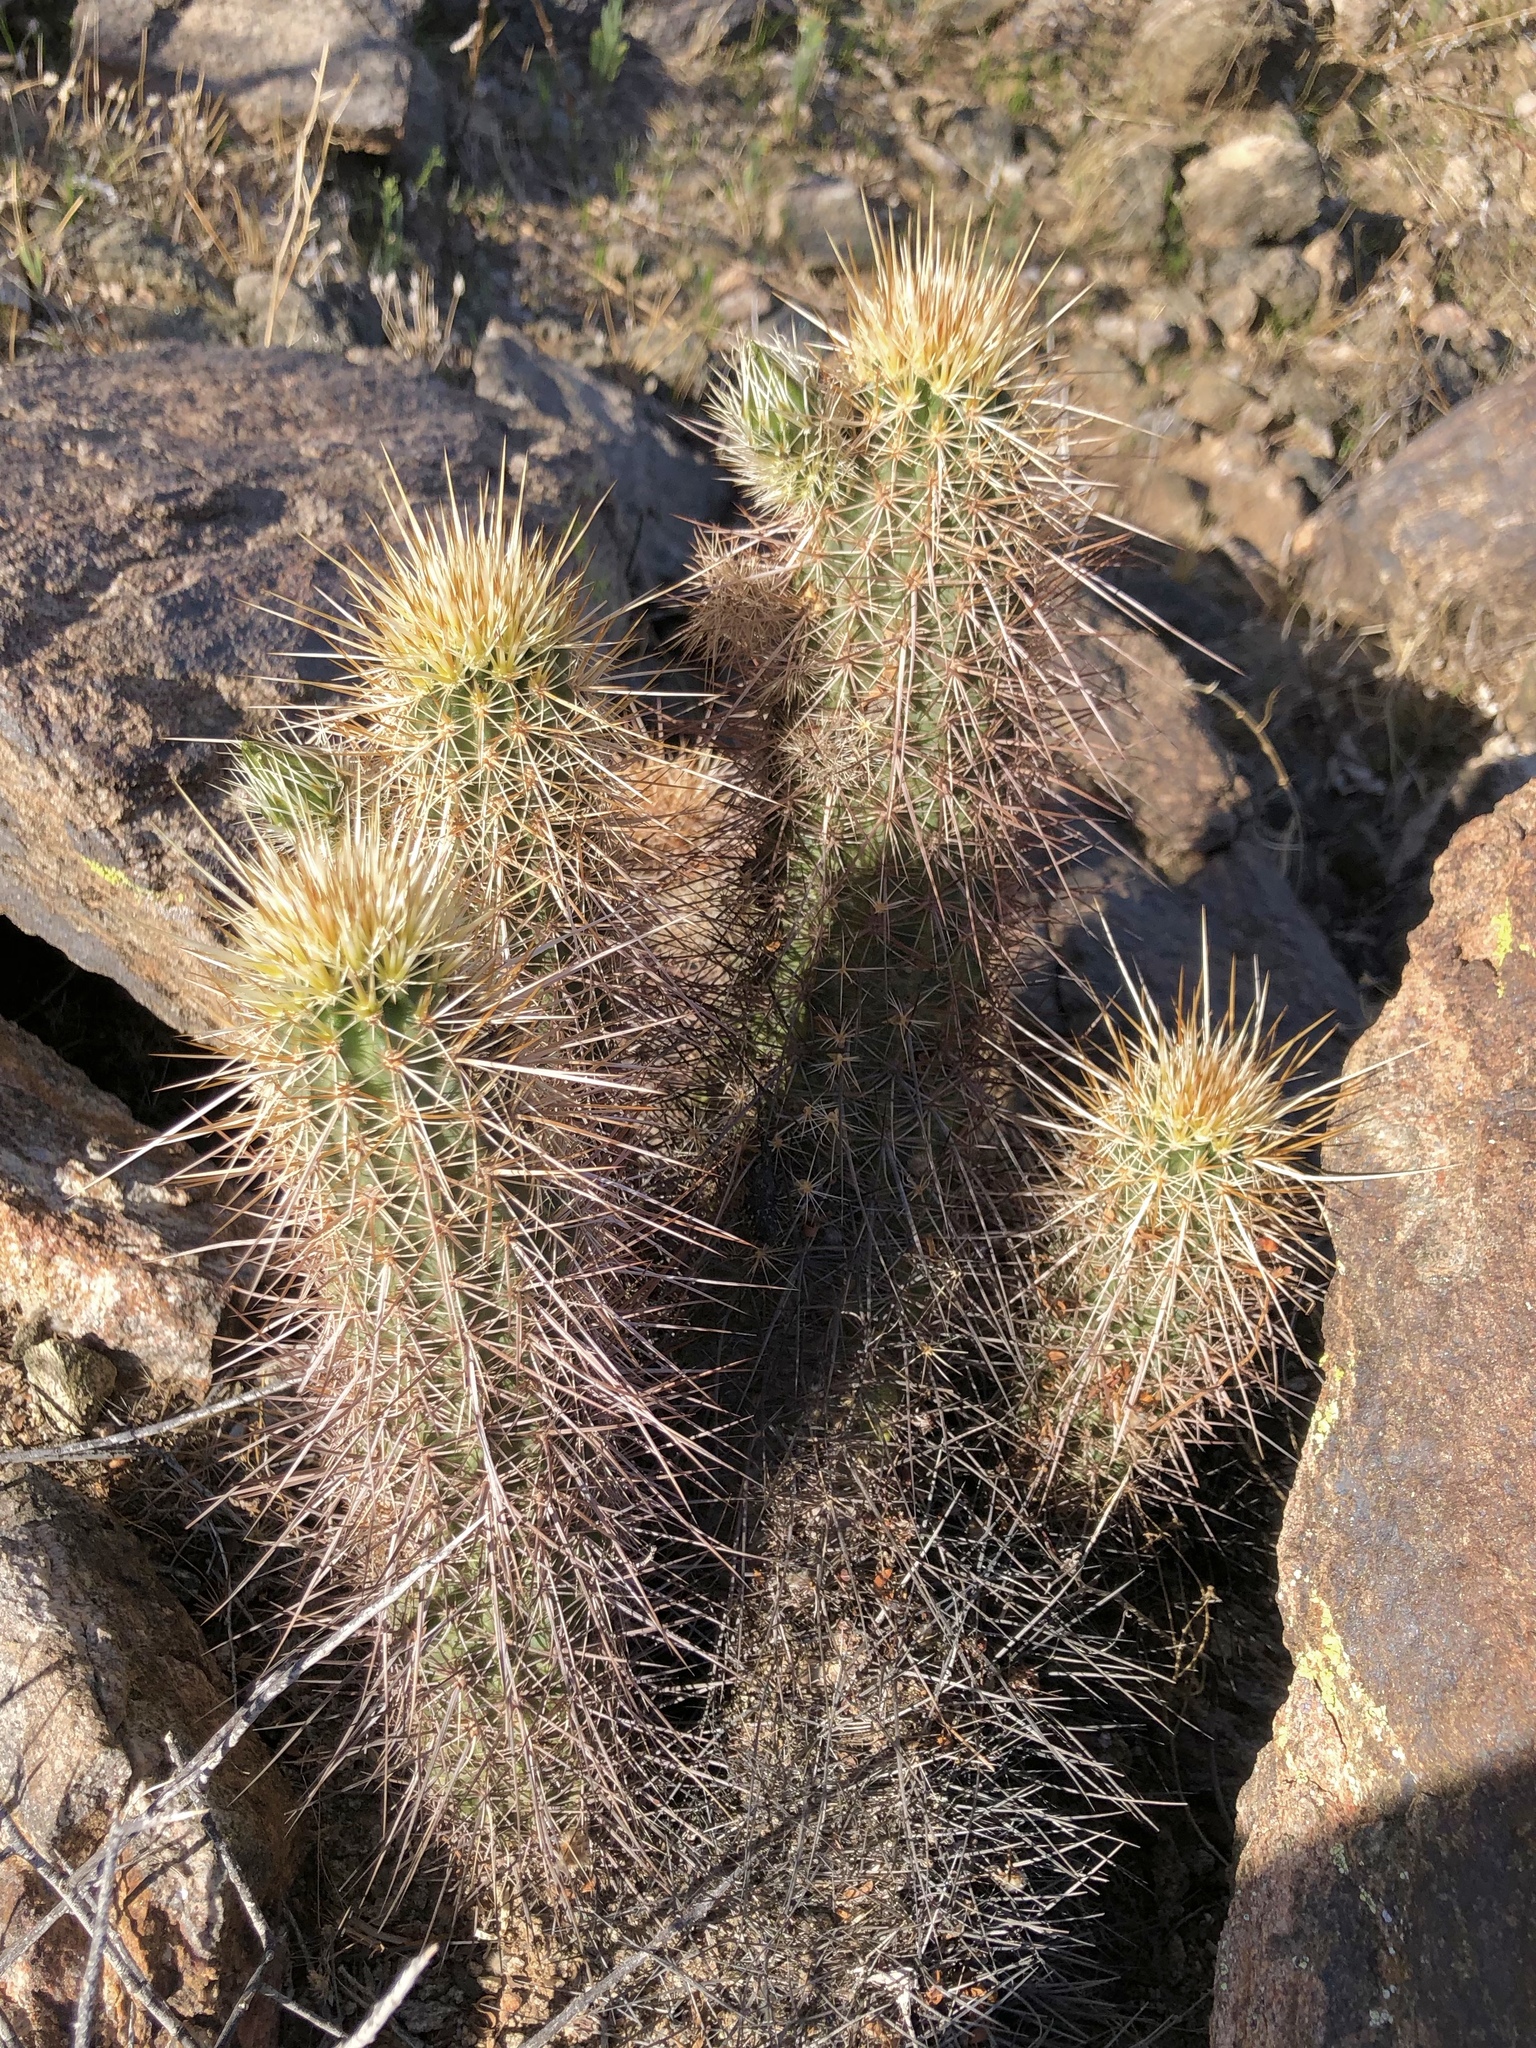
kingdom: Plantae
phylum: Tracheophyta
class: Magnoliopsida
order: Caryophyllales
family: Cactaceae
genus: Echinocereus
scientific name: Echinocereus engelmannii
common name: Engelmann's hedgehog cactus
